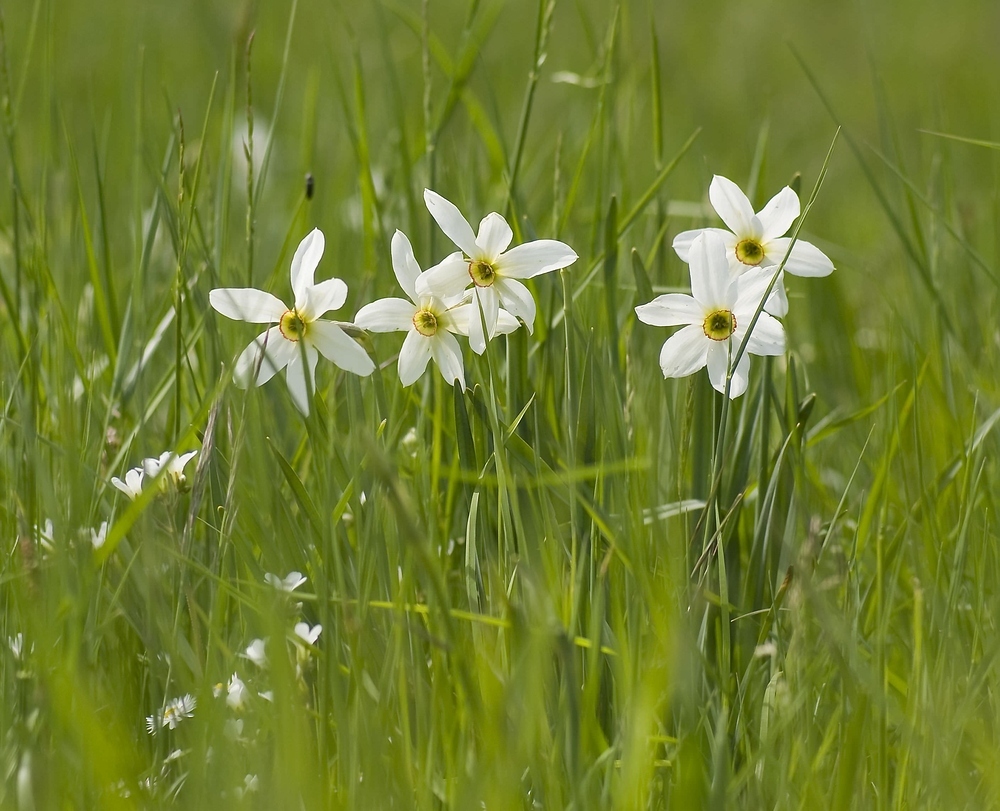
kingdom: Plantae
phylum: Tracheophyta
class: Liliopsida
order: Asparagales
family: Amaryllidaceae
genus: Narcissus
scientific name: Narcissus poeticus
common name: Pheasant's-eye daffodil
